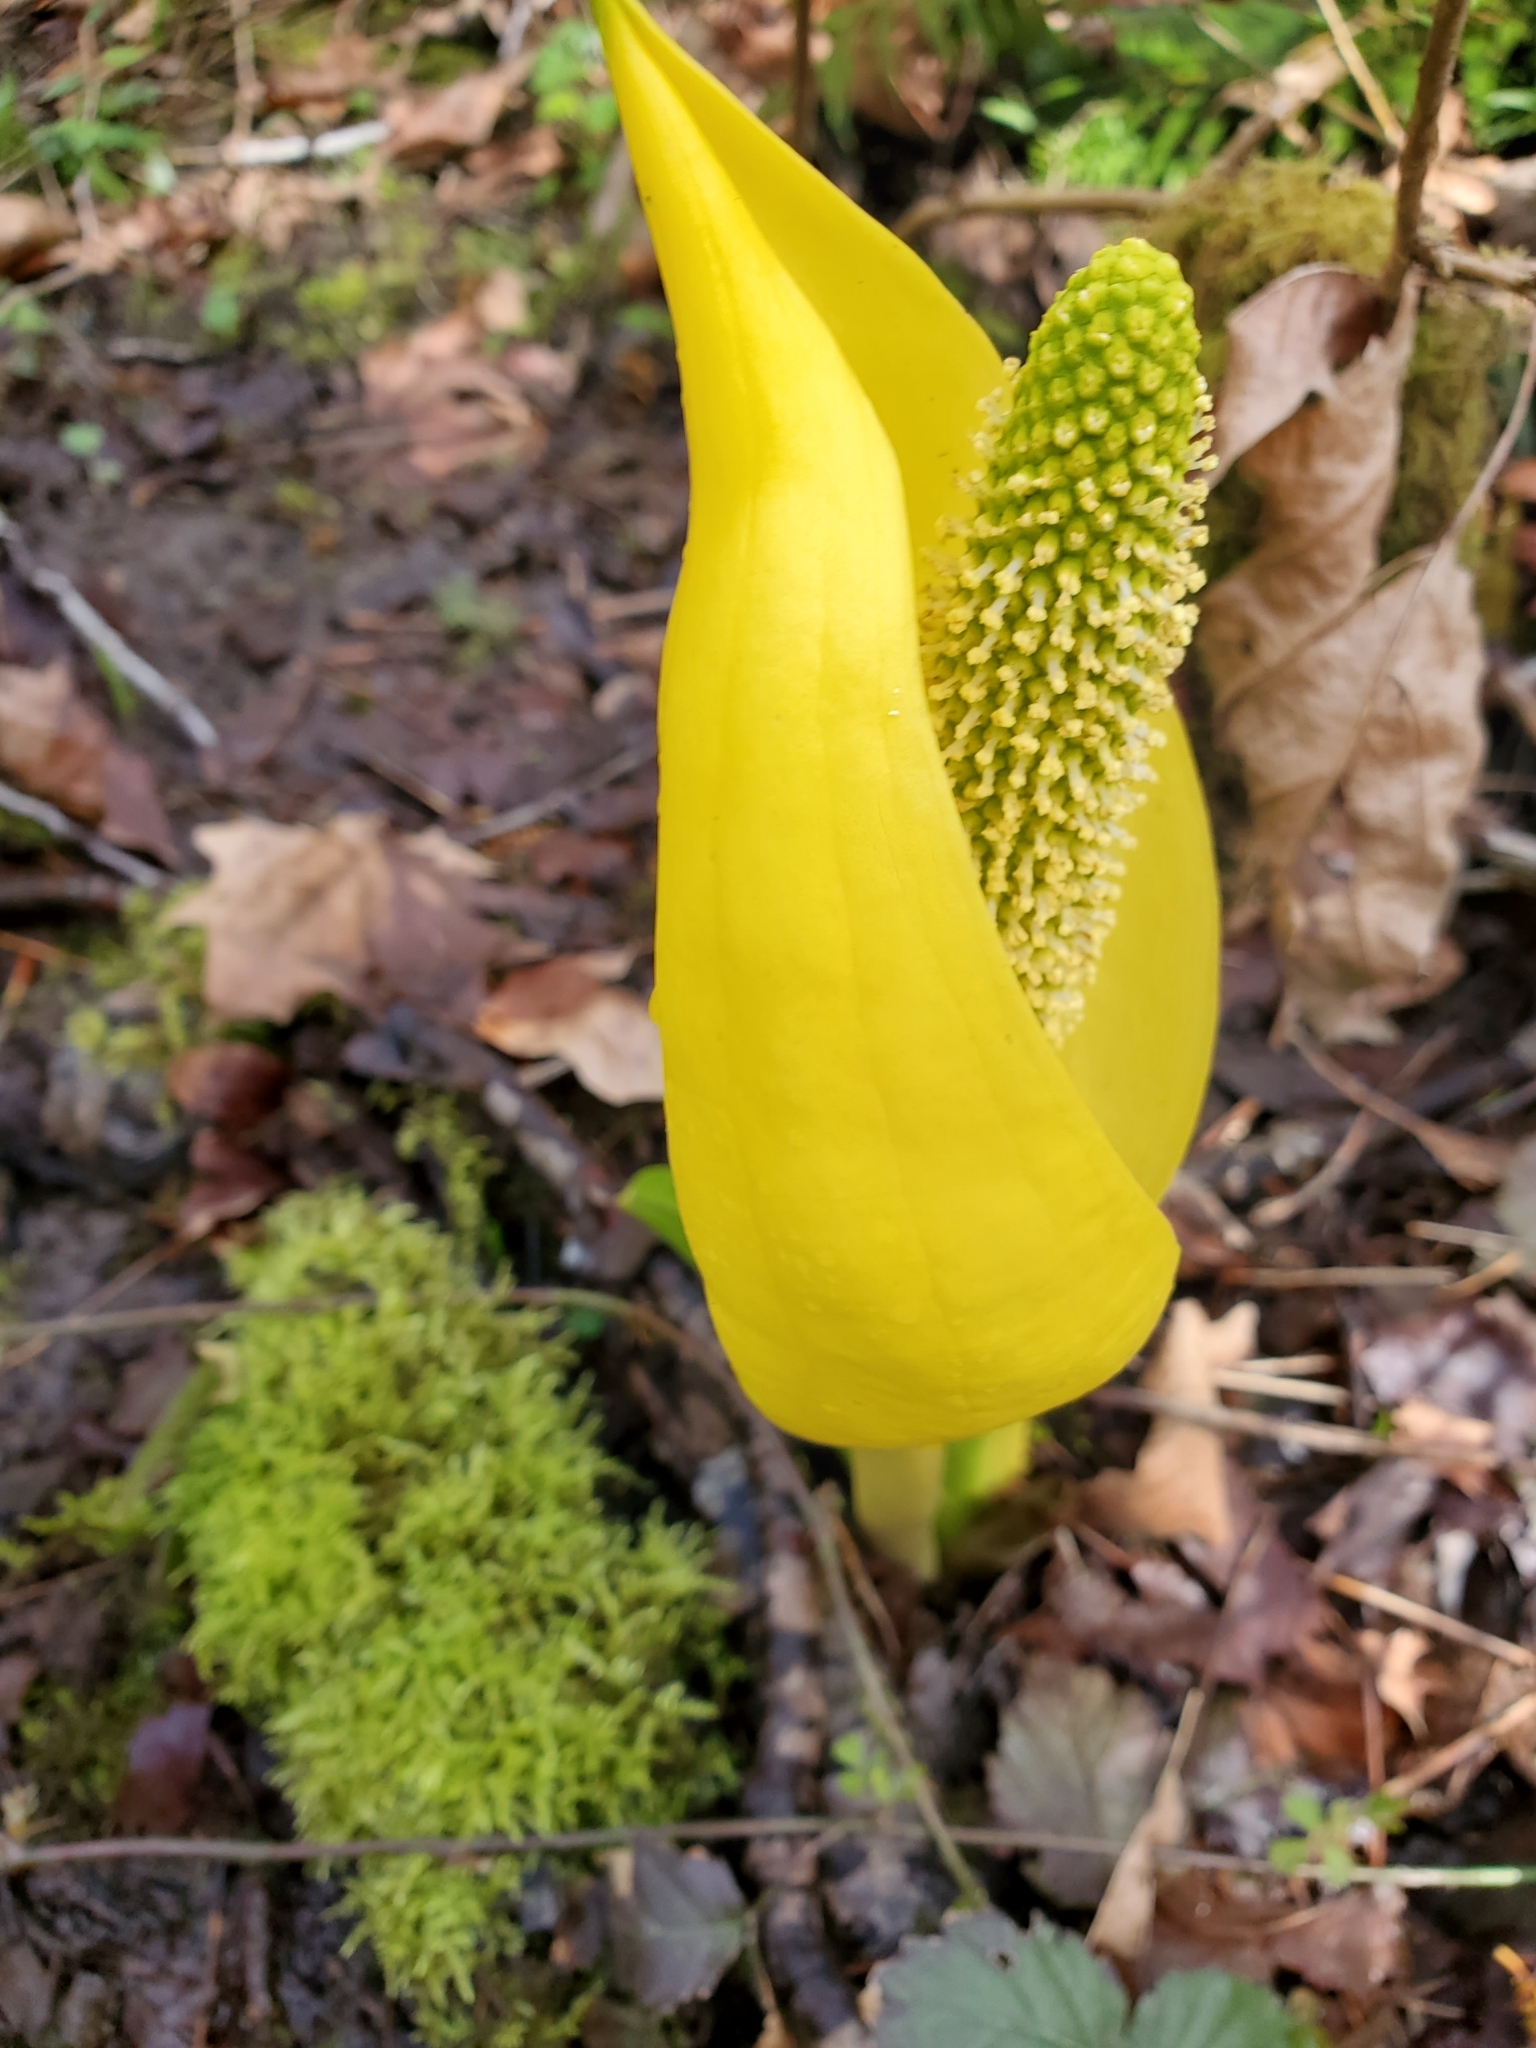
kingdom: Plantae
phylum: Tracheophyta
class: Liliopsida
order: Alismatales
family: Araceae
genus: Lysichiton
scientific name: Lysichiton americanus
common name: American skunk cabbage
